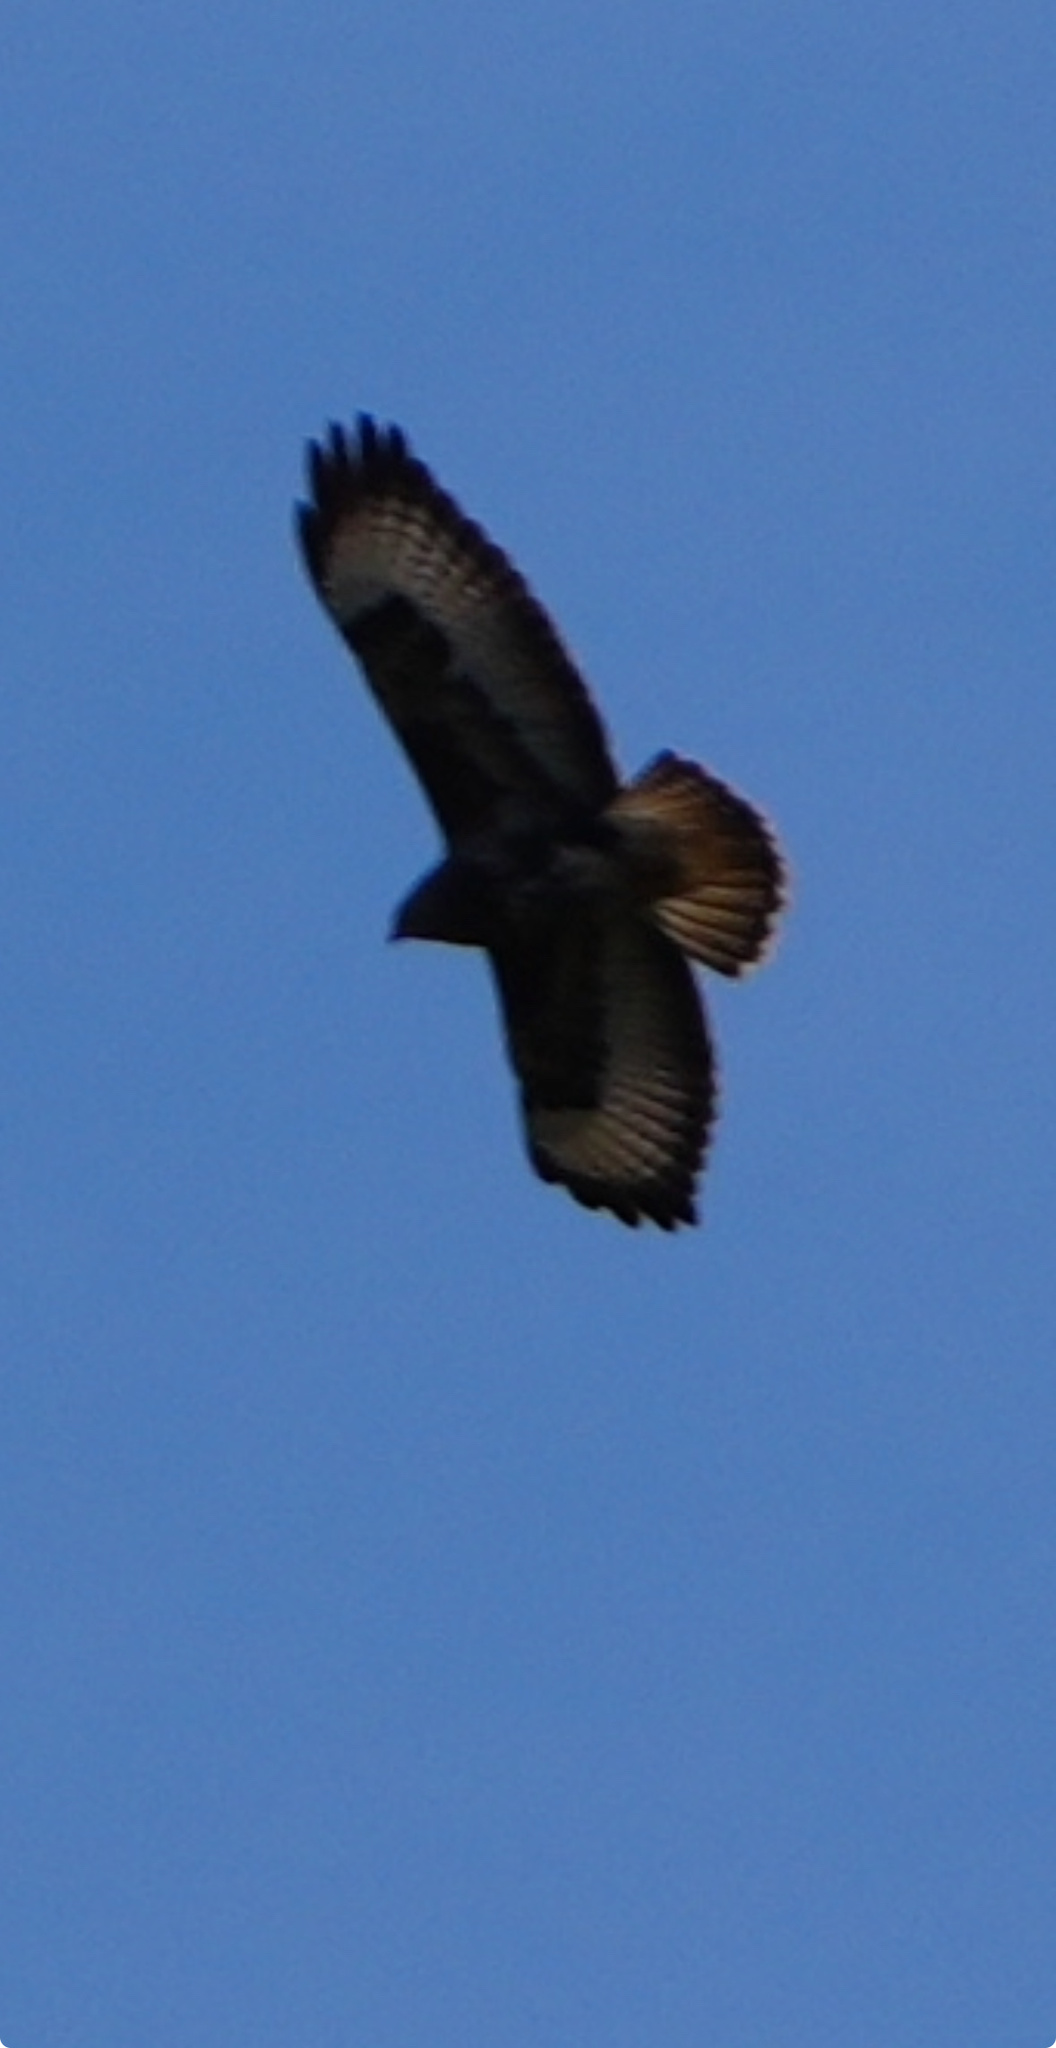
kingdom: Animalia
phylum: Chordata
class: Aves
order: Accipitriformes
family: Accipitridae
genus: Buteo
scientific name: Buteo buteo
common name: Common buzzard
